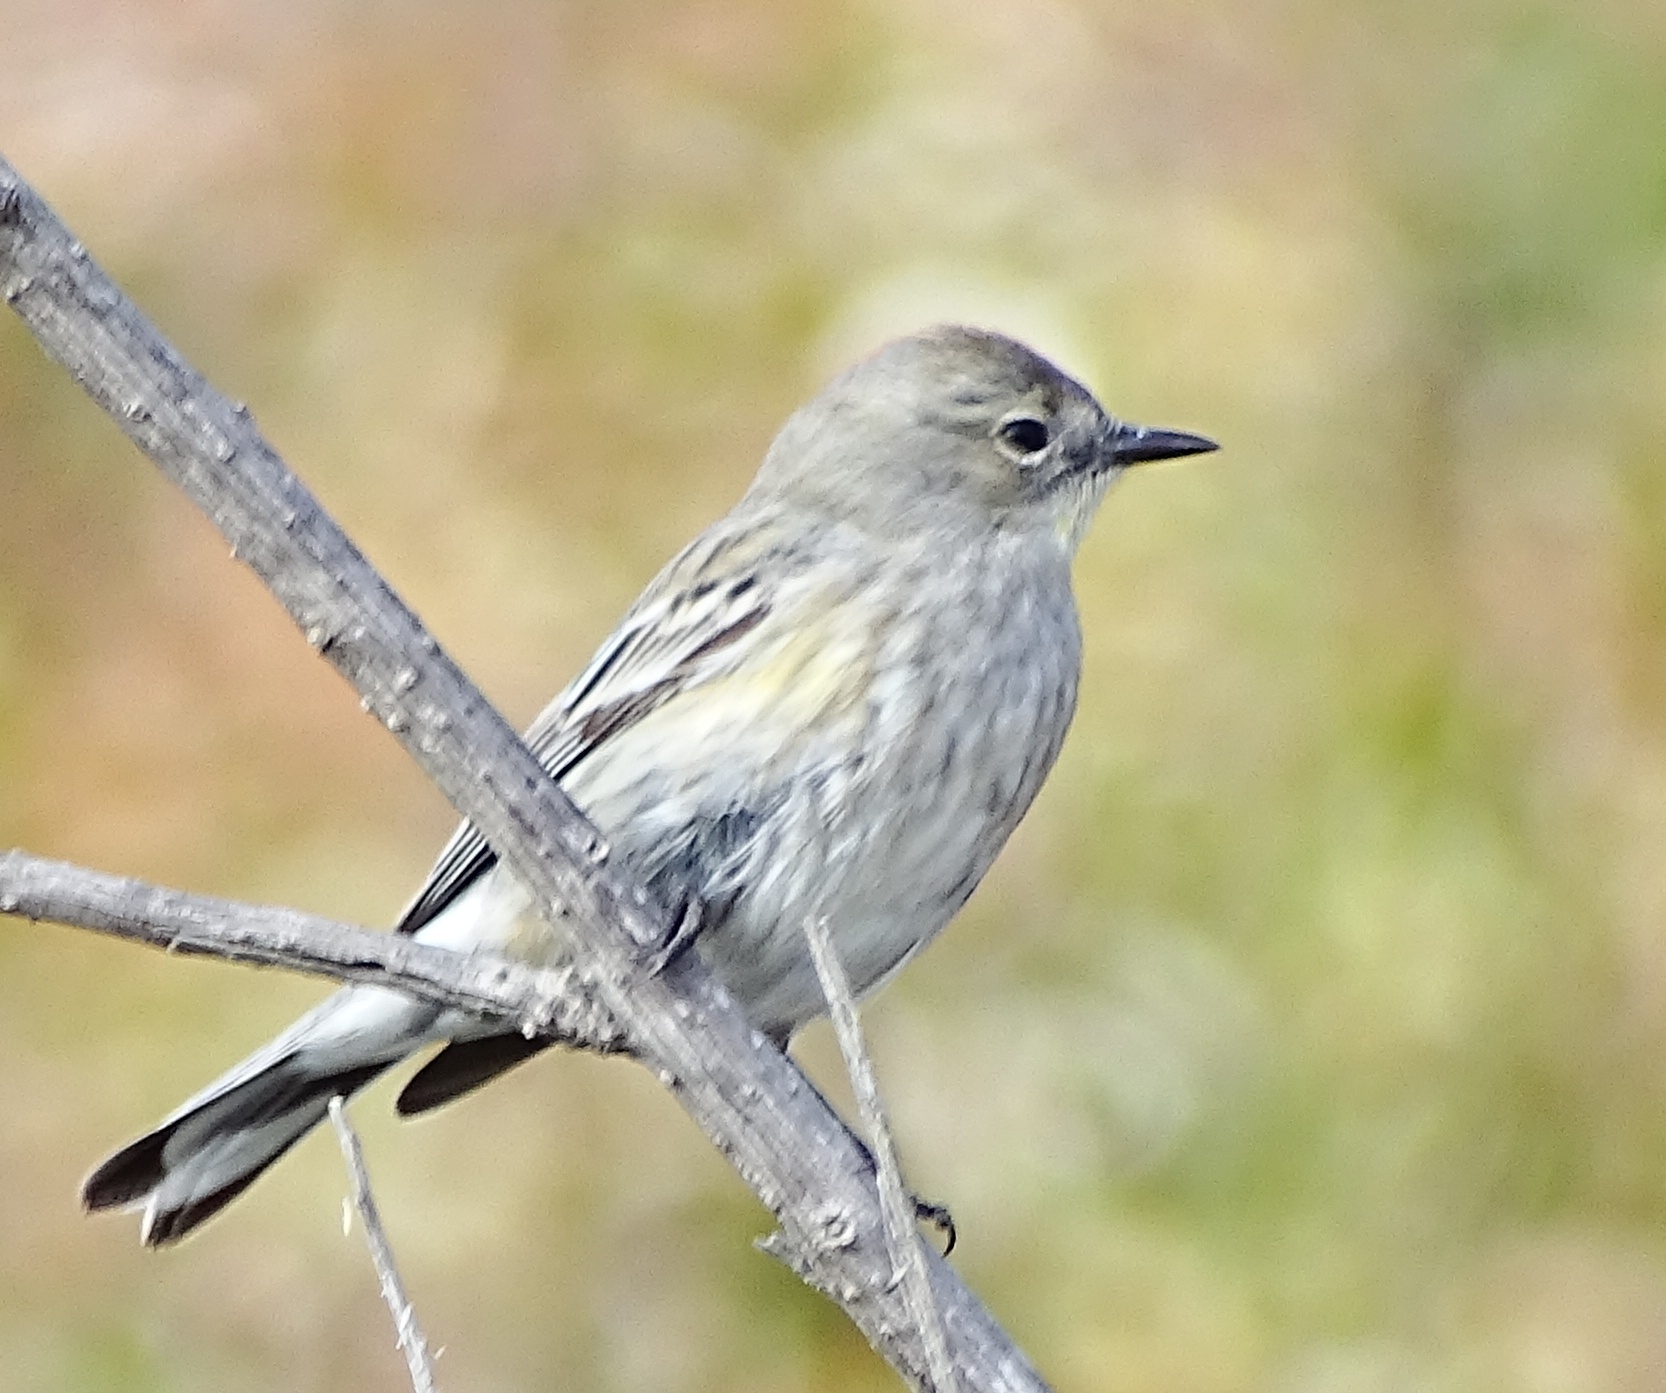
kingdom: Animalia
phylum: Chordata
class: Aves
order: Passeriformes
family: Parulidae
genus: Setophaga
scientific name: Setophaga coronata
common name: Myrtle warbler
